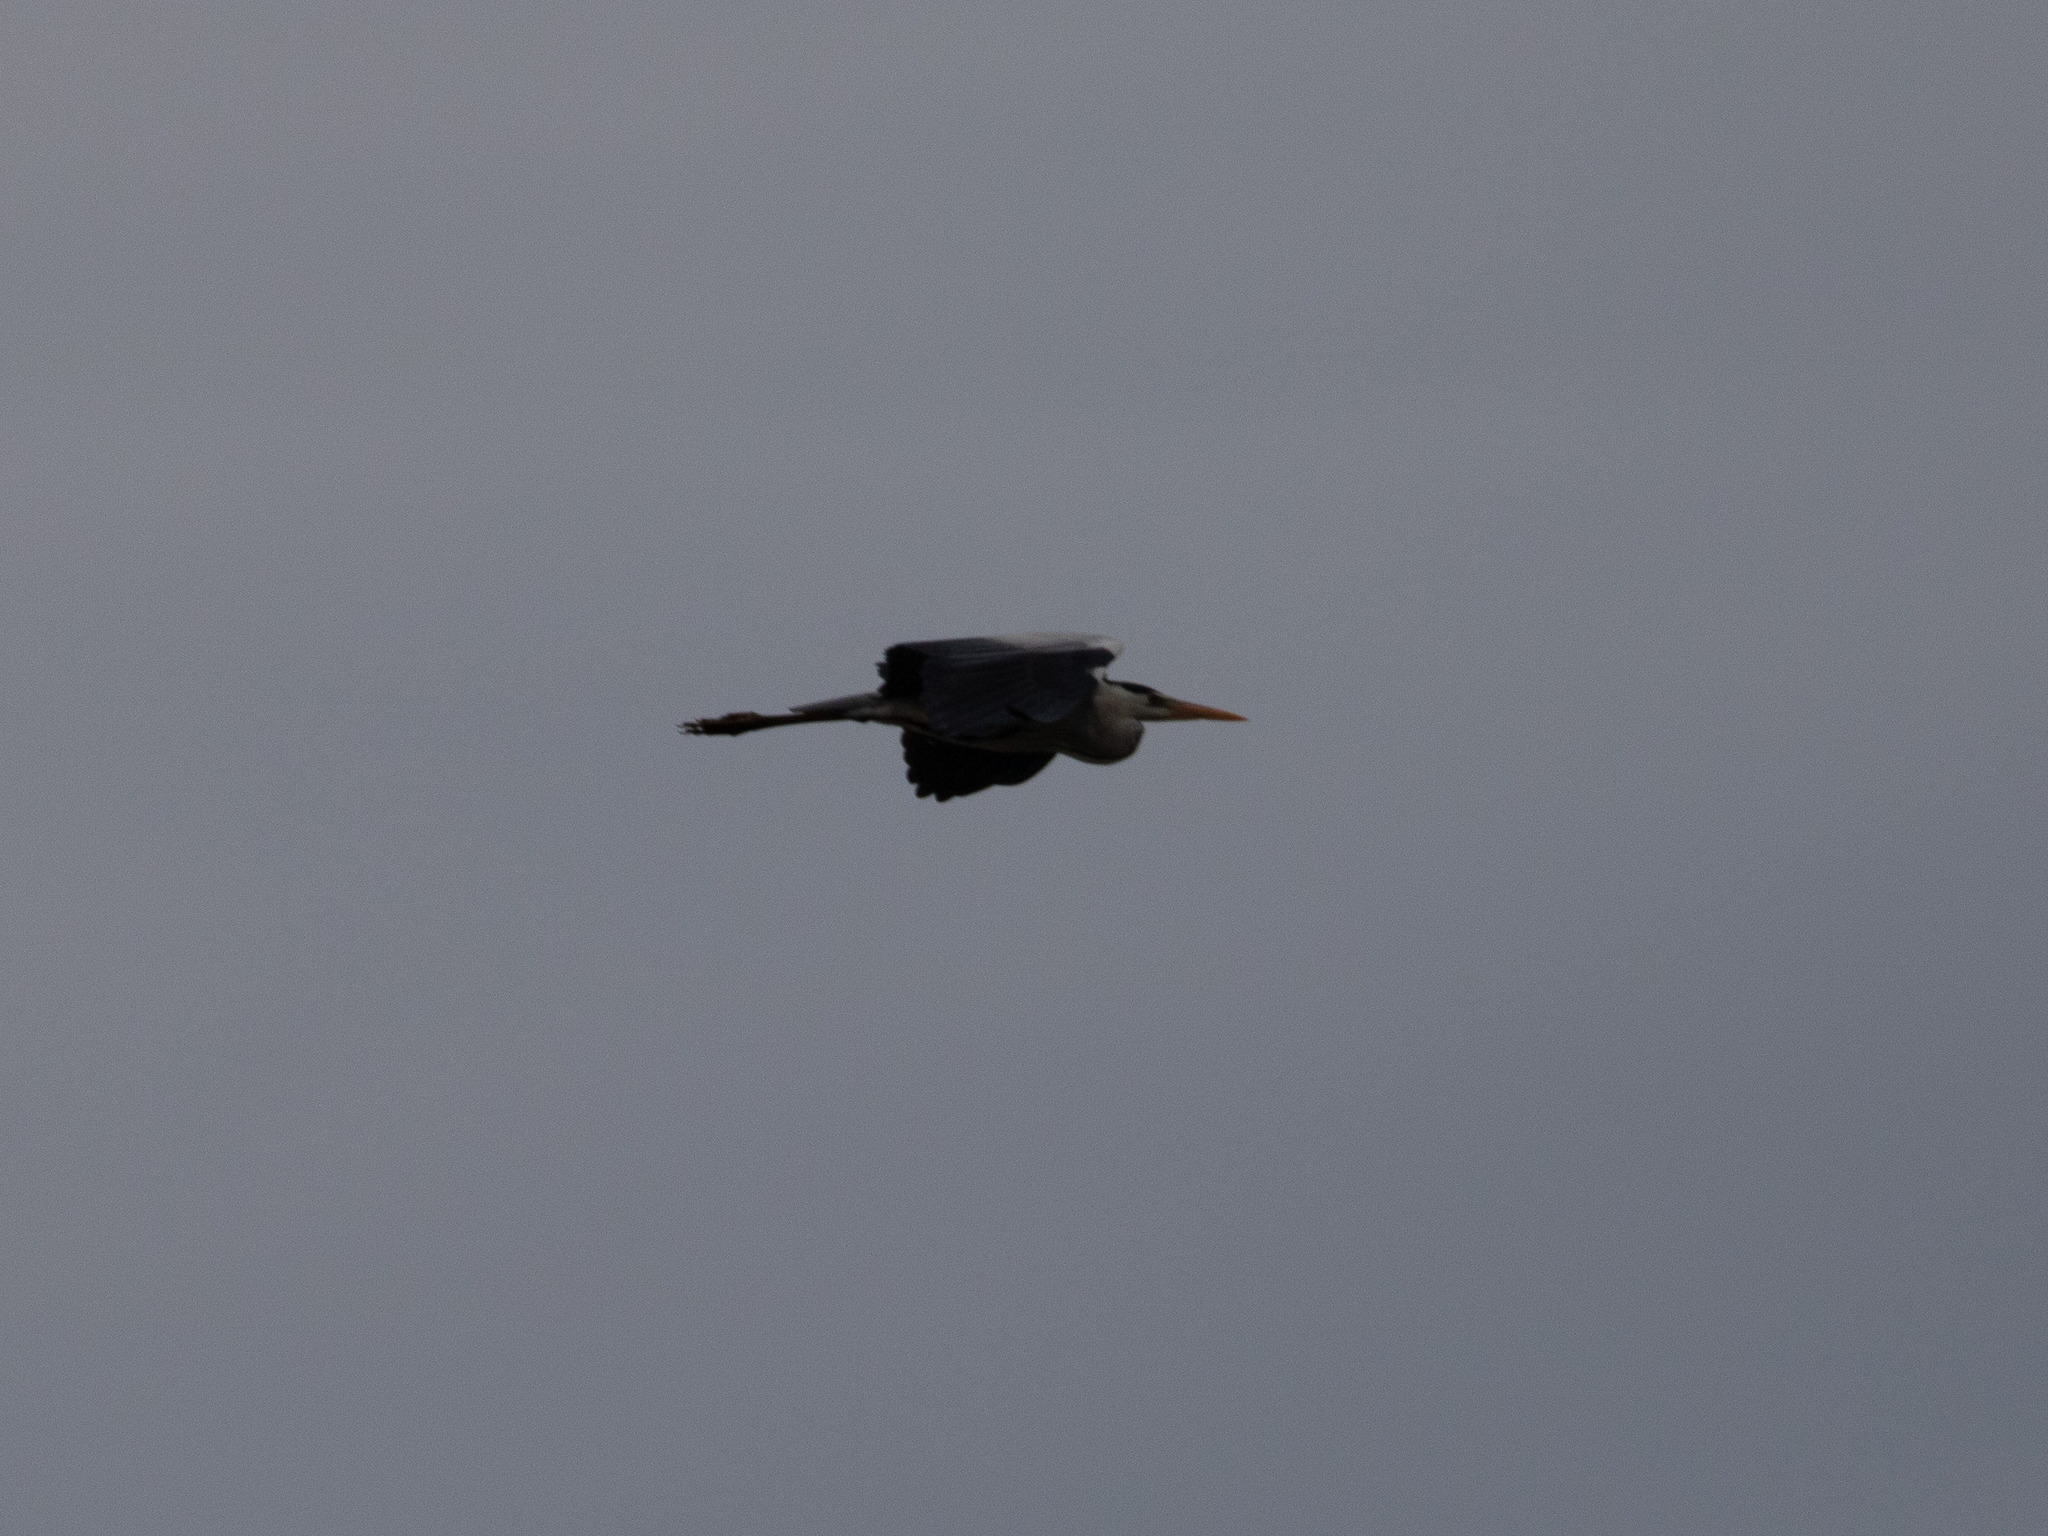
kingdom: Animalia
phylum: Chordata
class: Aves
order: Pelecaniformes
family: Ardeidae
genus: Ardea
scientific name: Ardea cinerea
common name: Grey heron
